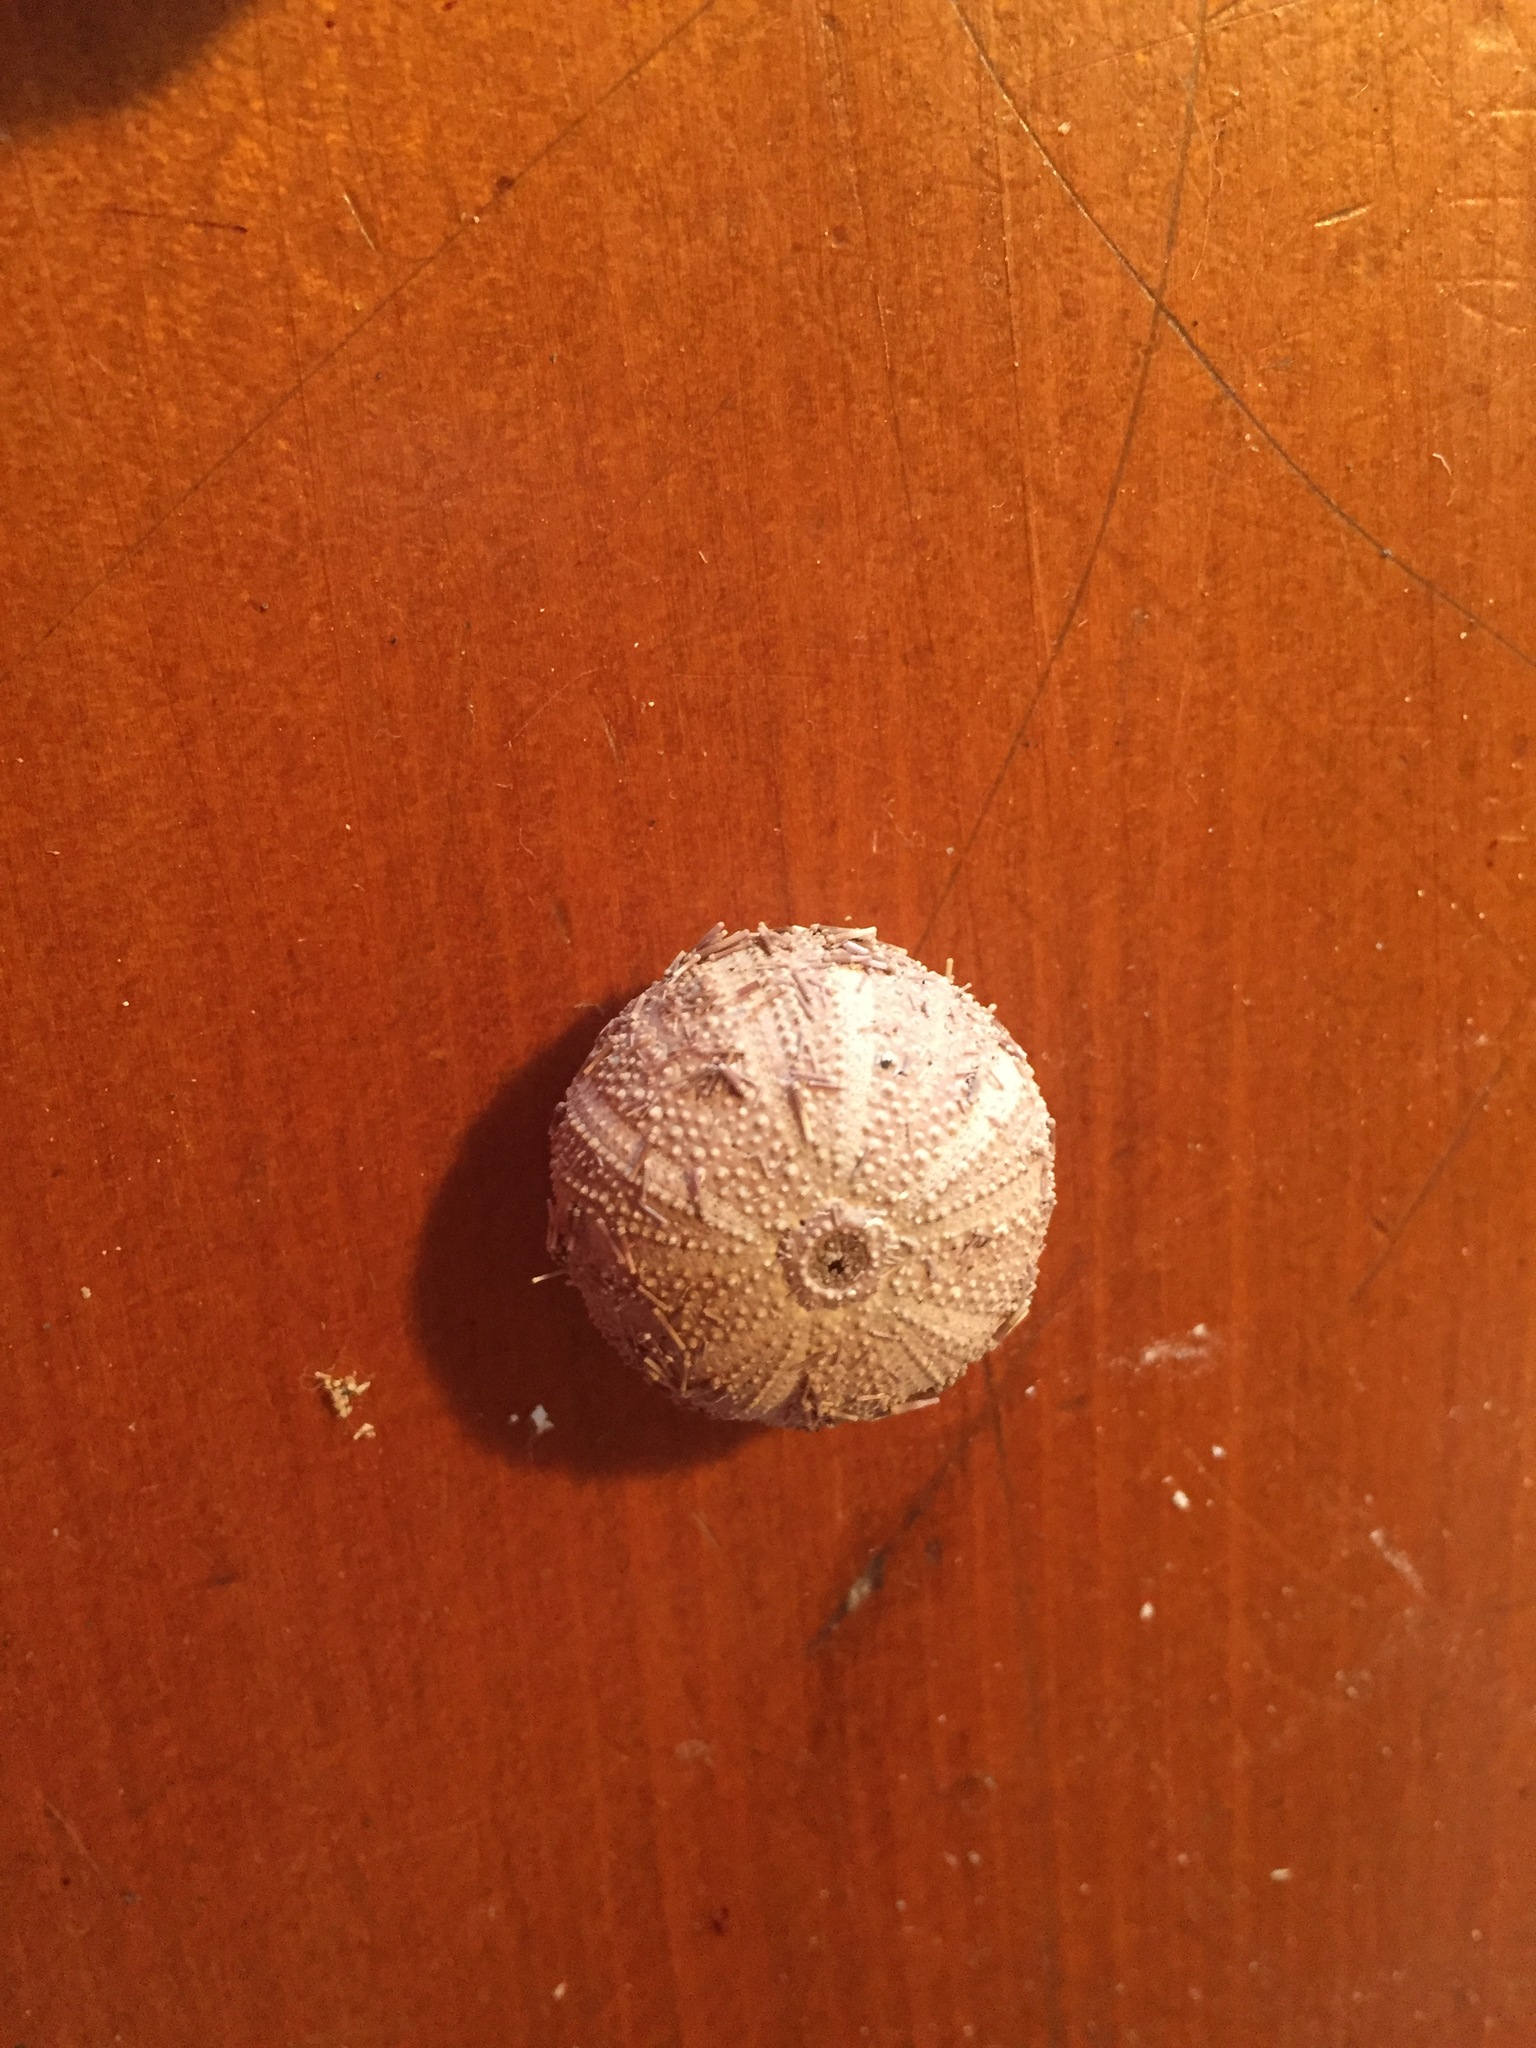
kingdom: Animalia
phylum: Echinodermata
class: Echinoidea
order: Camarodonta
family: Temnopleuridae
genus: Amblypneustes
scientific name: Amblypneustes elevatus
